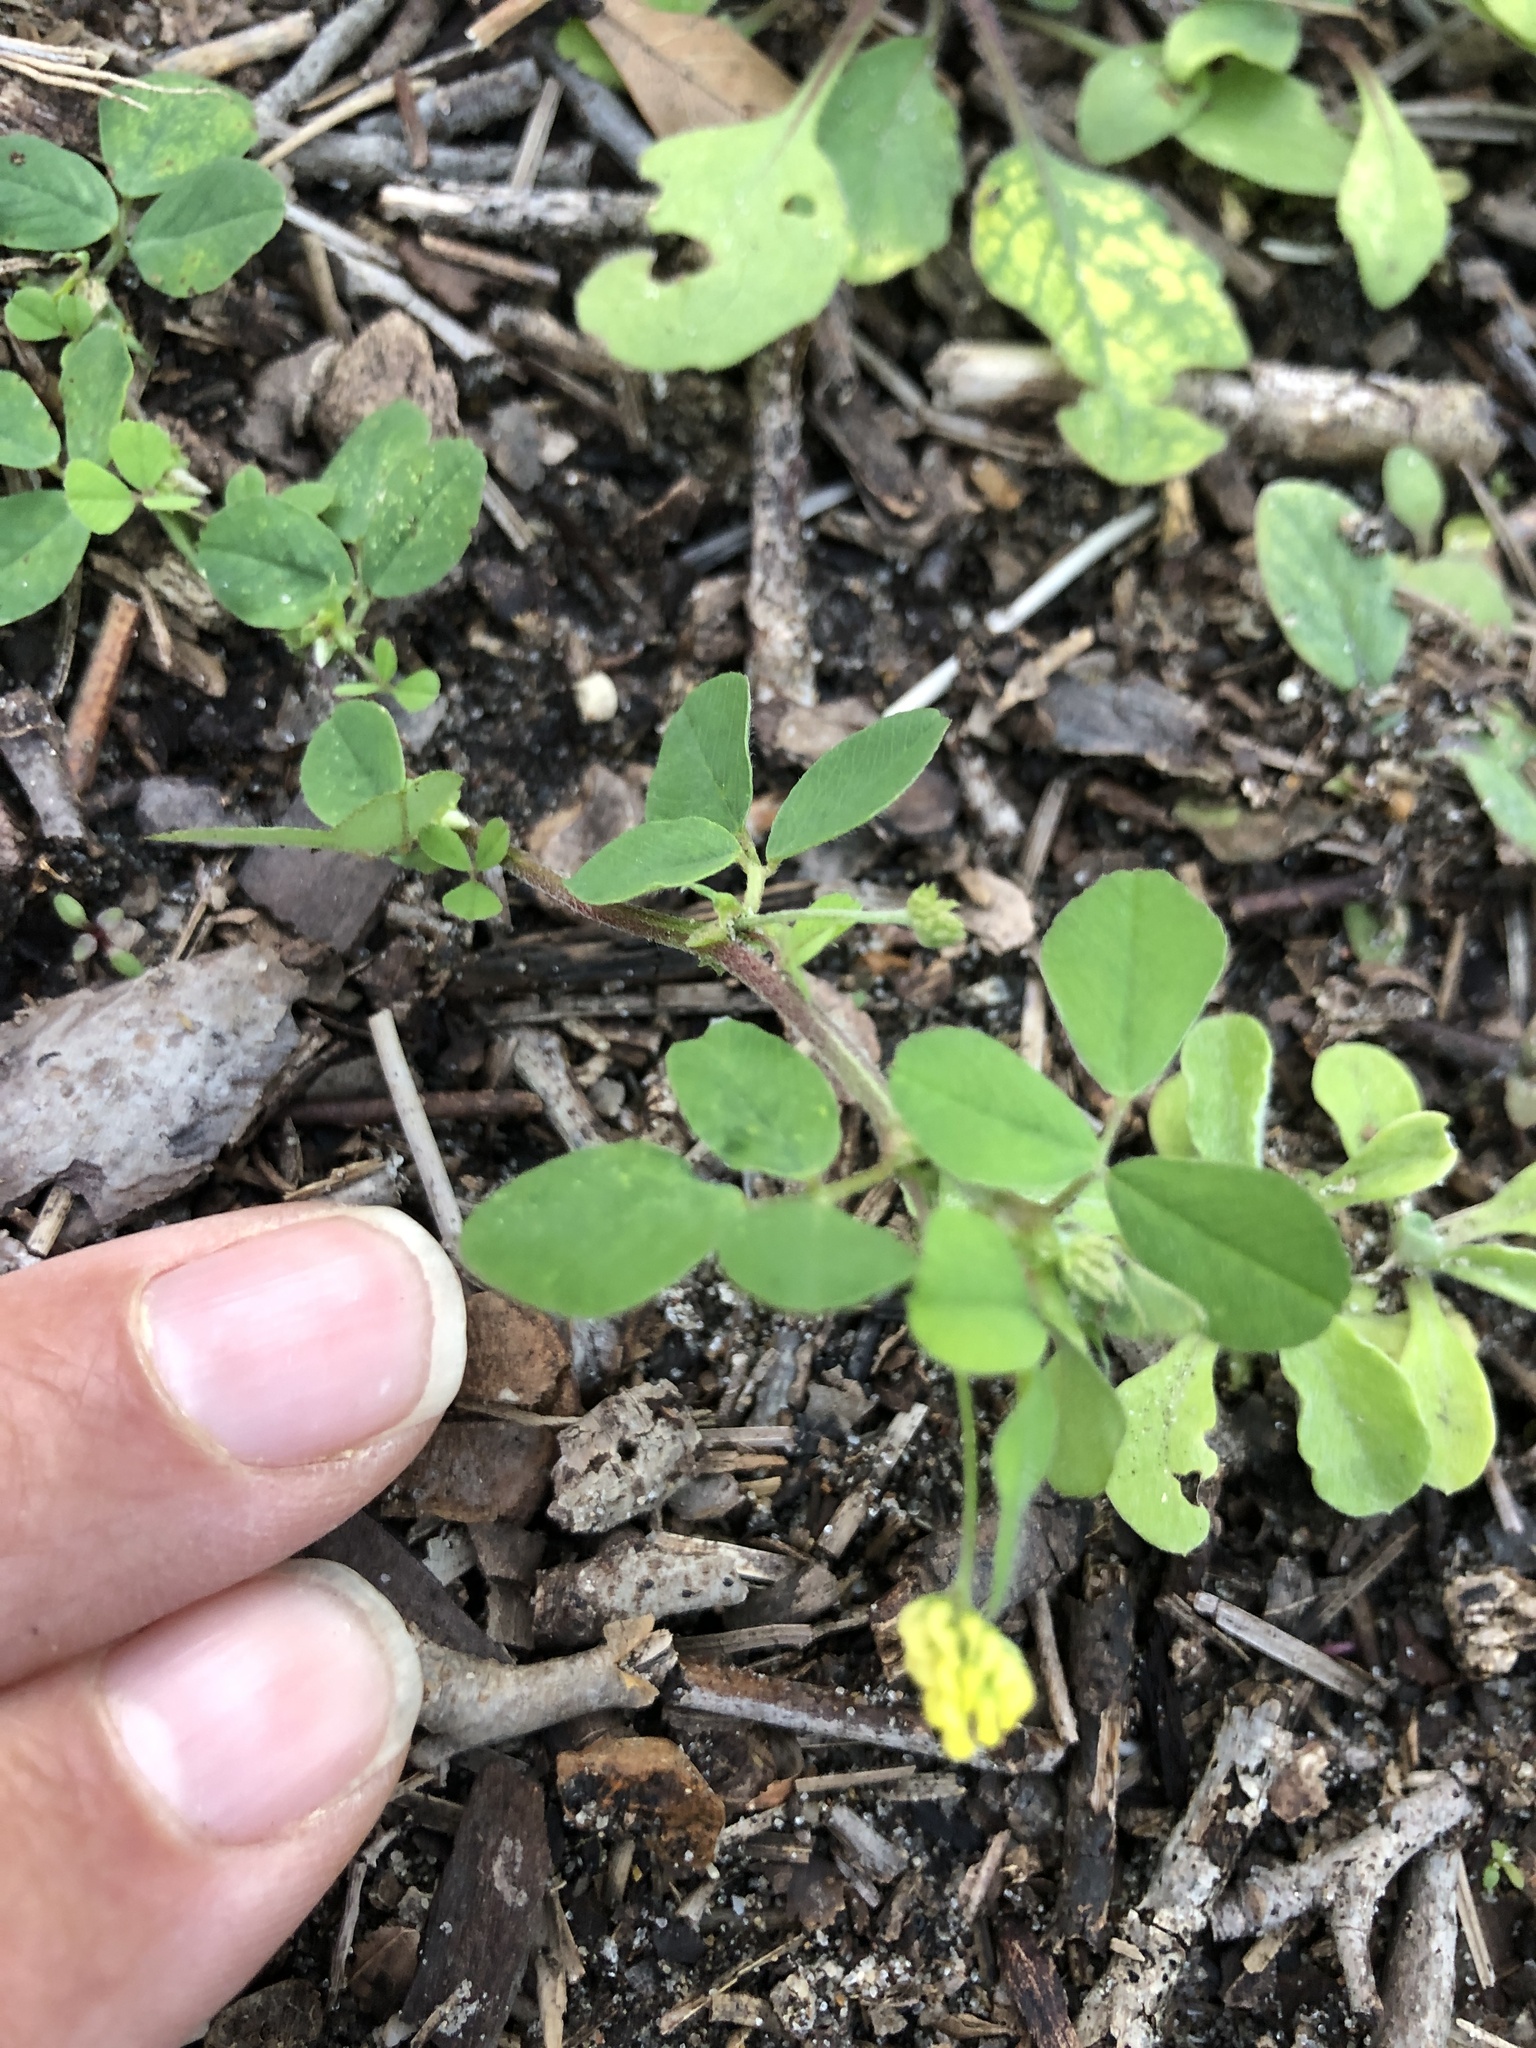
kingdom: Plantae
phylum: Tracheophyta
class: Magnoliopsida
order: Fabales
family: Fabaceae
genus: Medicago
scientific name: Medicago lupulina
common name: Black medick
